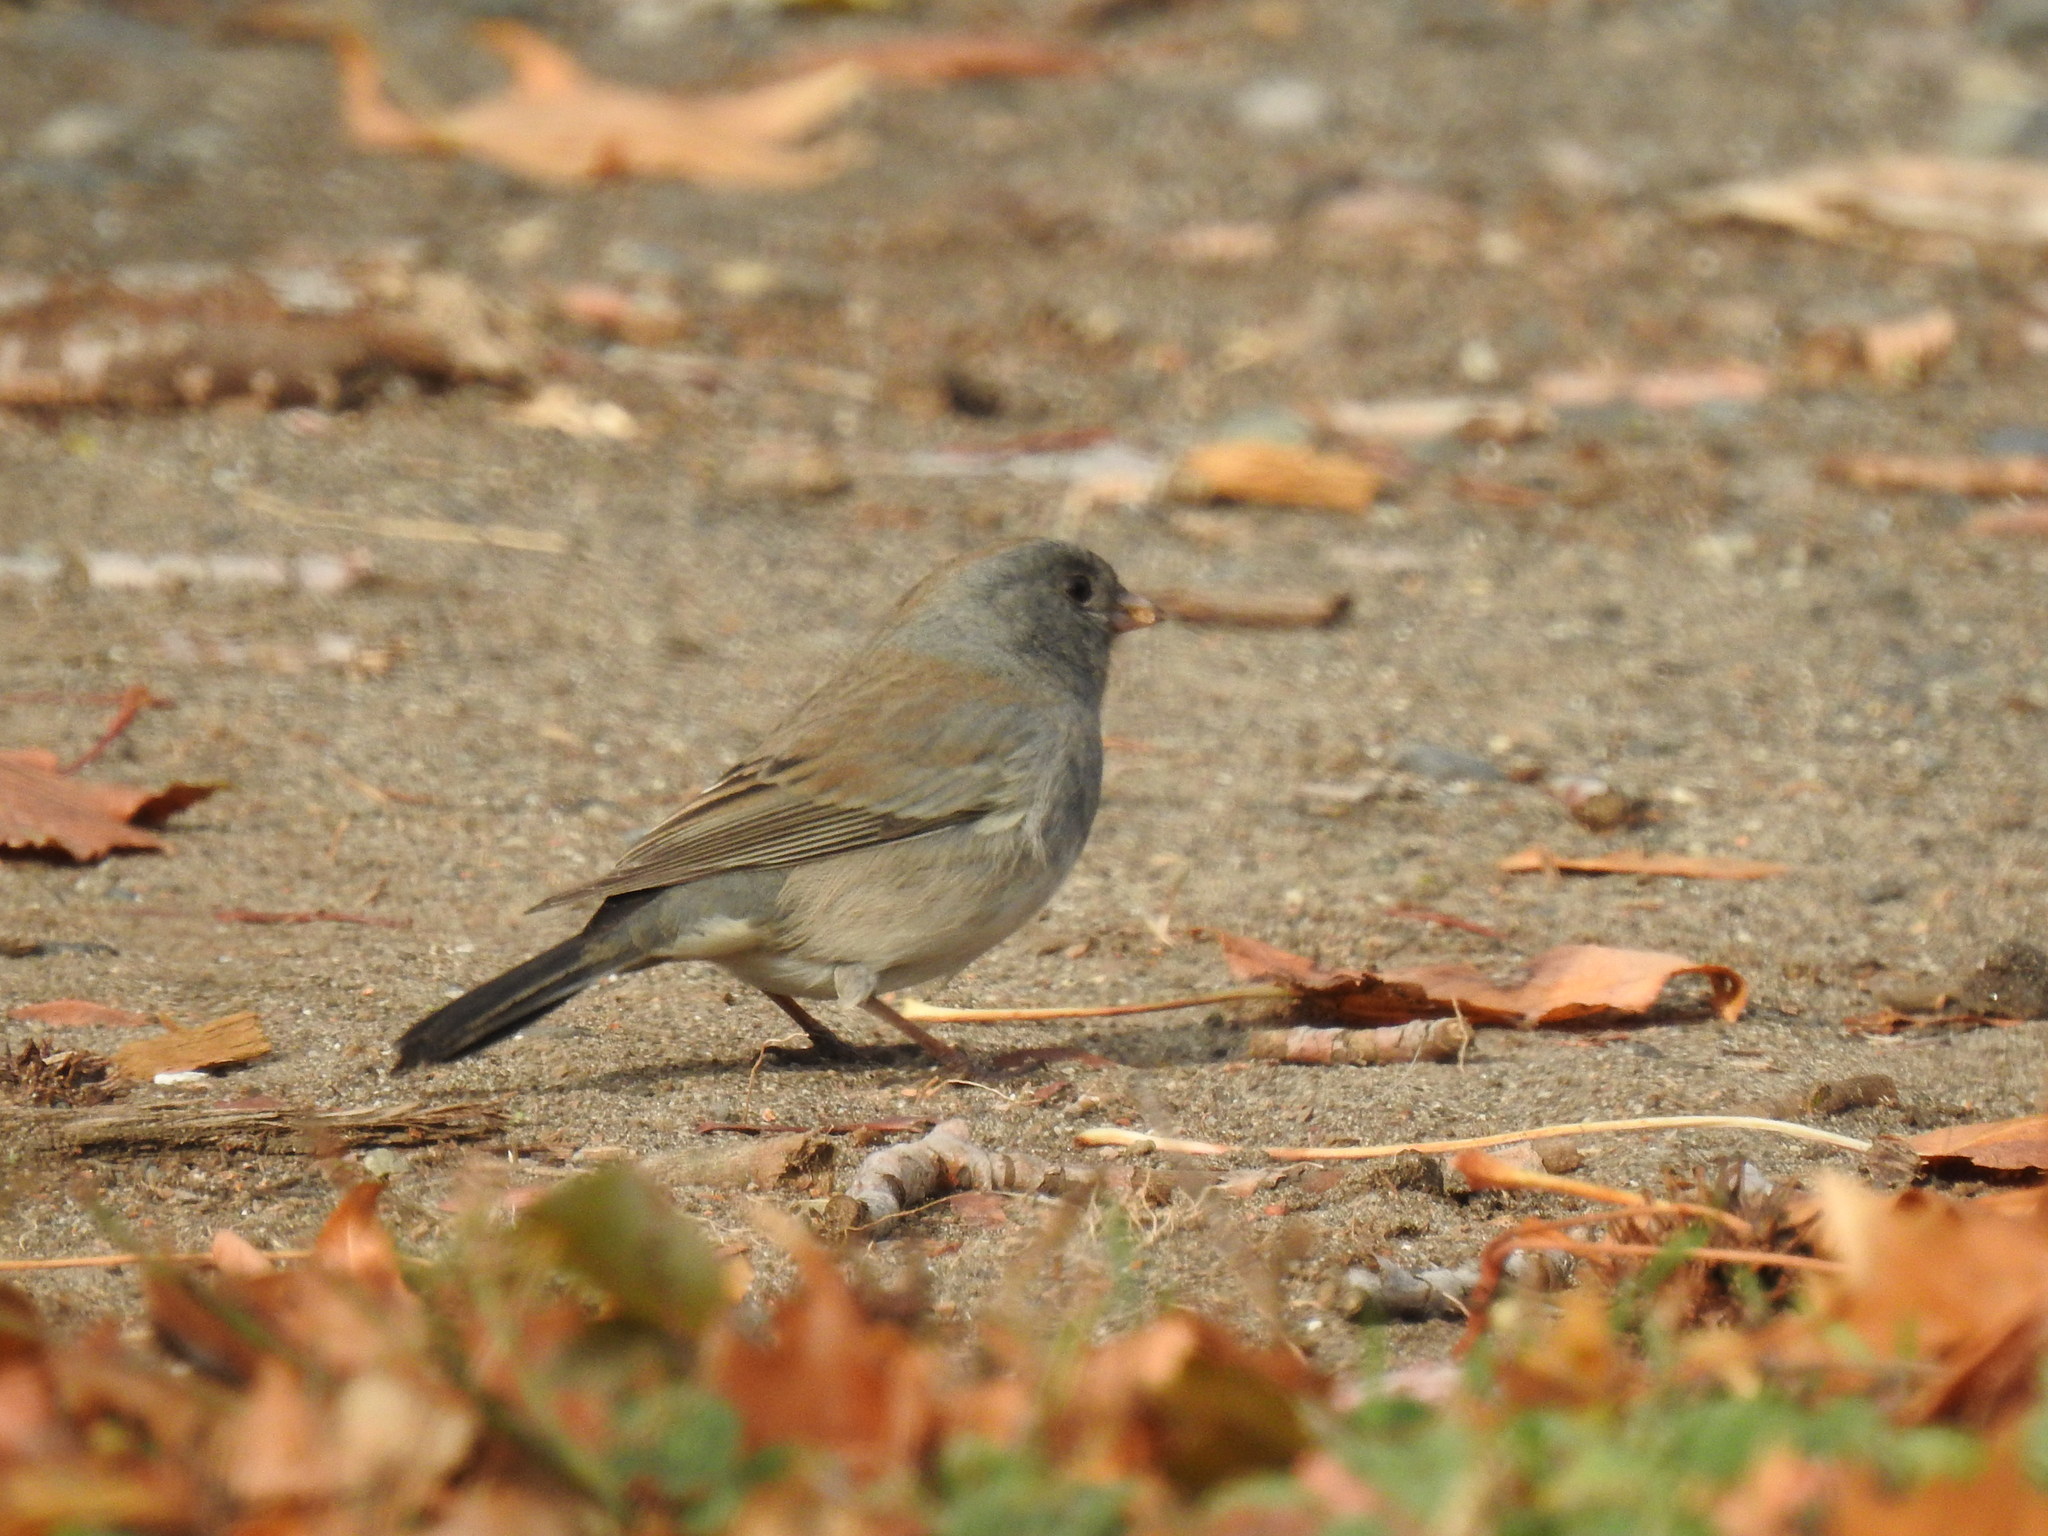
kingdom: Animalia
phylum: Chordata
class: Aves
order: Passeriformes
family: Passerellidae
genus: Junco
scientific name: Junco hyemalis
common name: Dark-eyed junco
